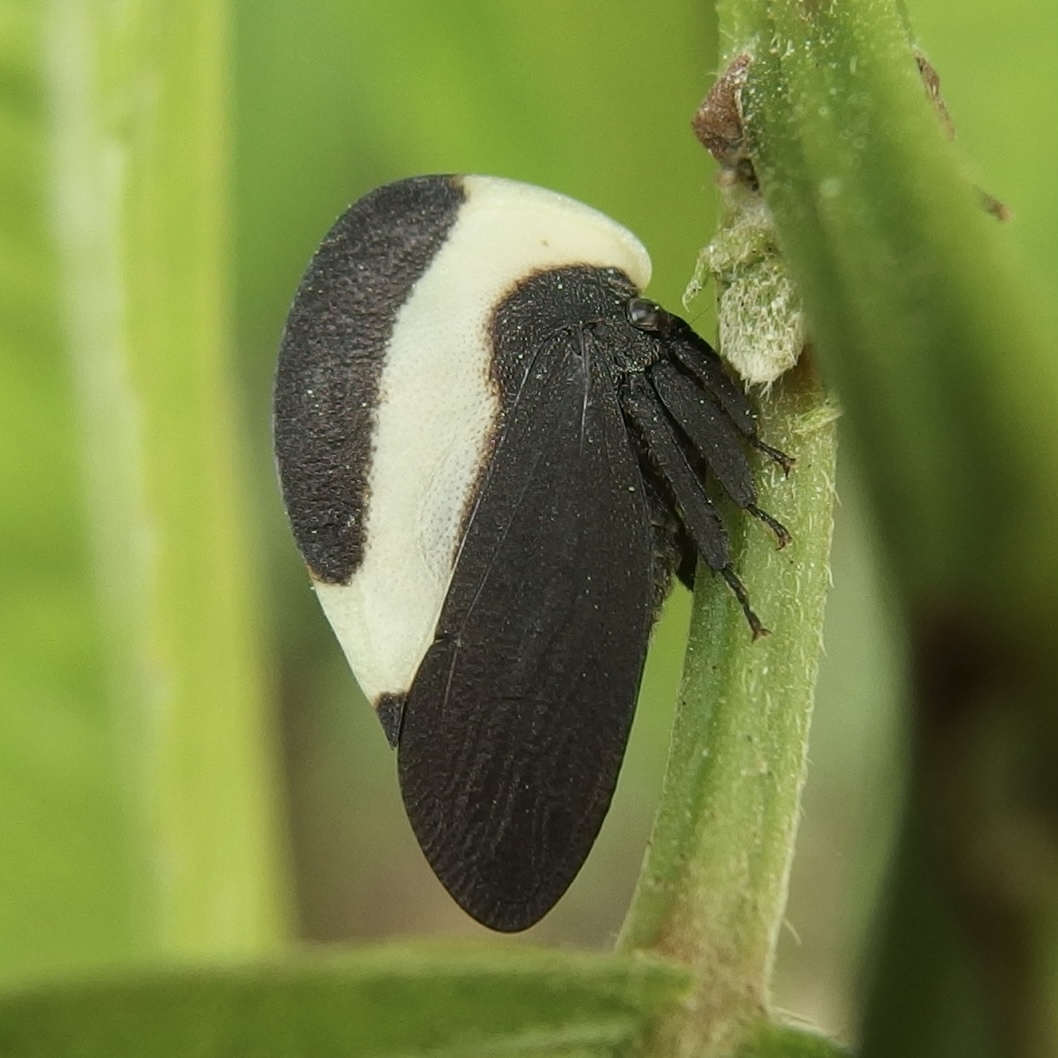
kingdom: Animalia
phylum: Arthropoda
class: Insecta
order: Hemiptera
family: Membracidae
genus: Membracis
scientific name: Membracis tectigera
